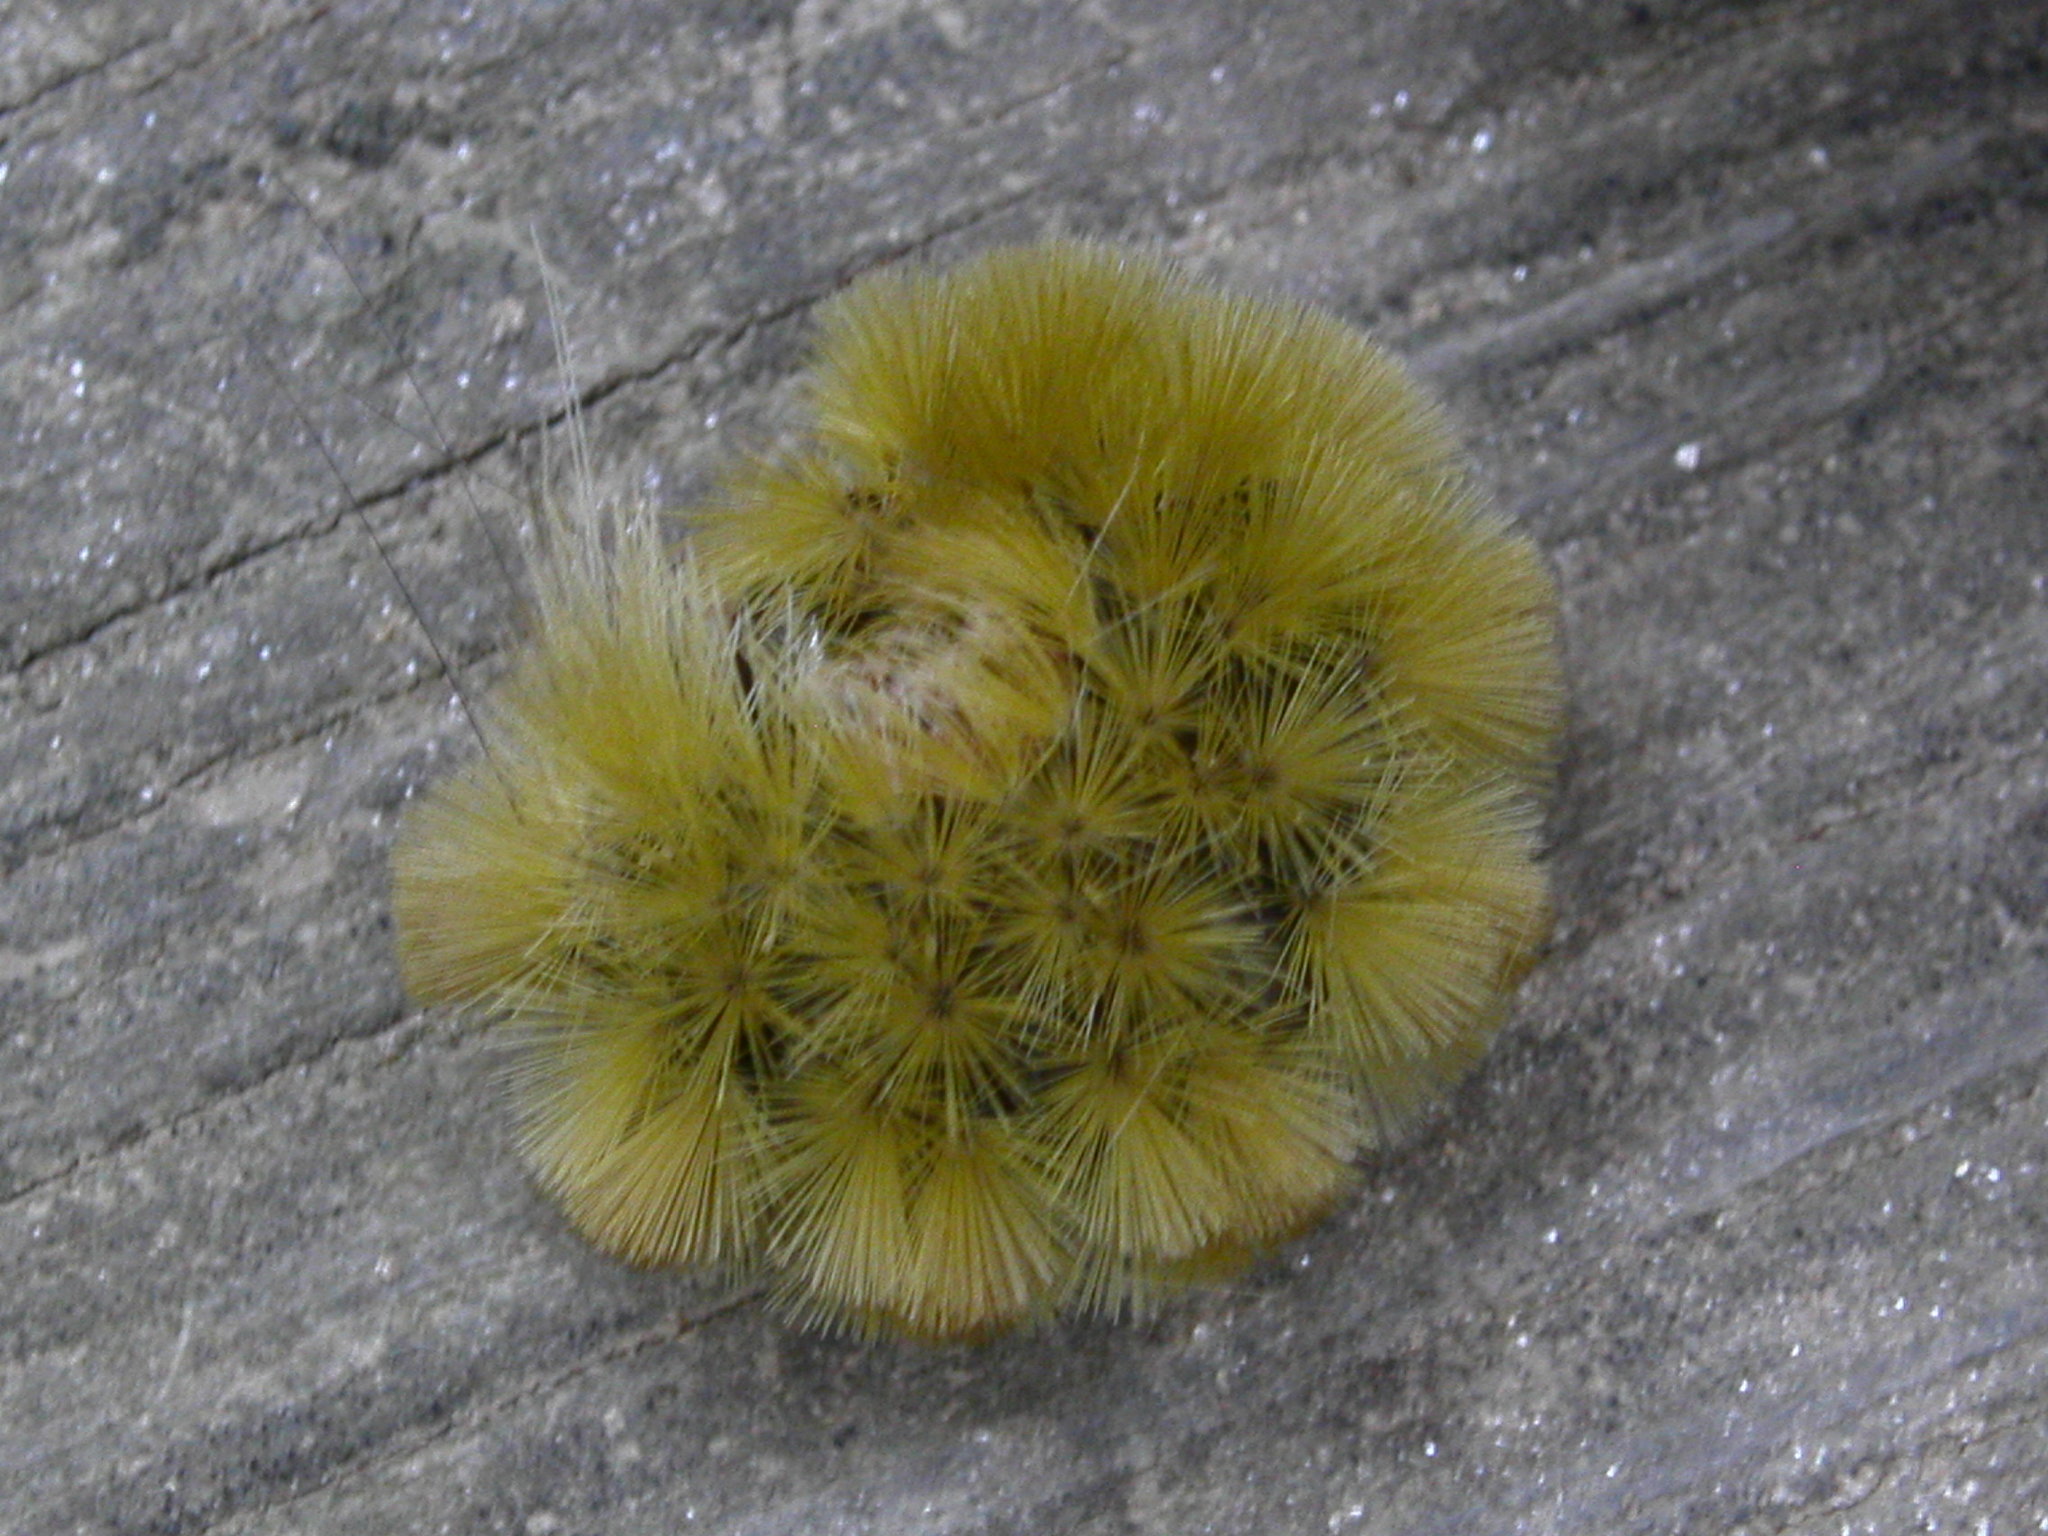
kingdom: Animalia
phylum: Arthropoda
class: Insecta
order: Lepidoptera
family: Erebidae
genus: Halysidota
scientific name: Halysidota tessellaris
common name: Banded tussock moth
